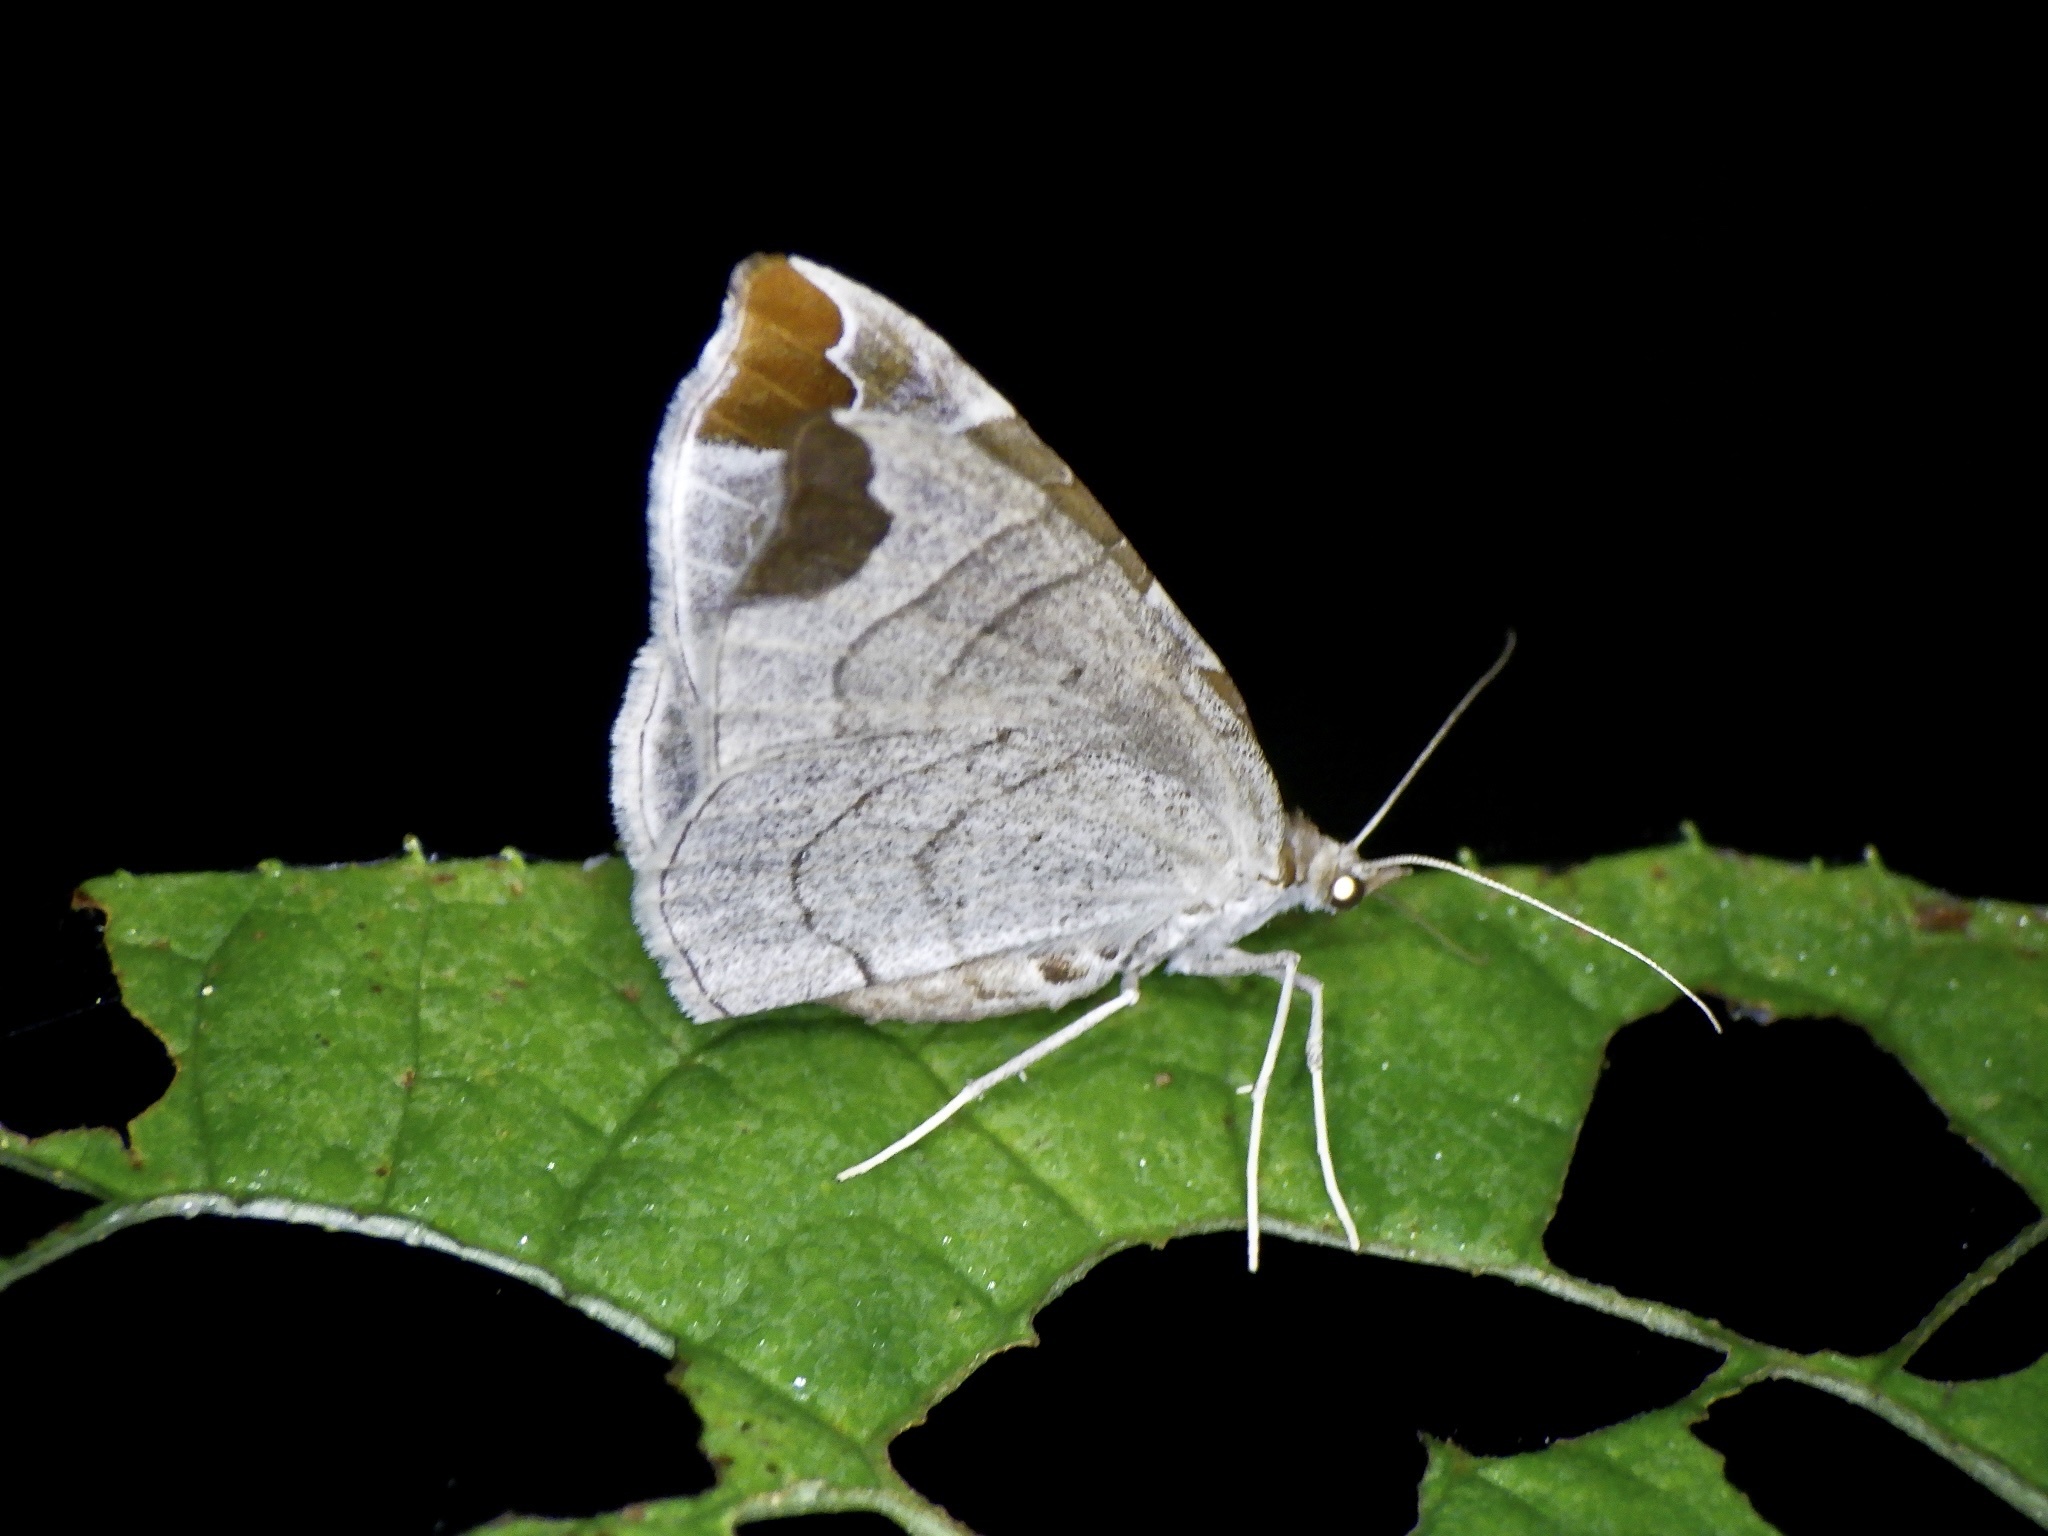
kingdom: Animalia
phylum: Arthropoda
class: Insecta
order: Lepidoptera
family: Geometridae
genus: Eulithis
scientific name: Eulithis ledereri
